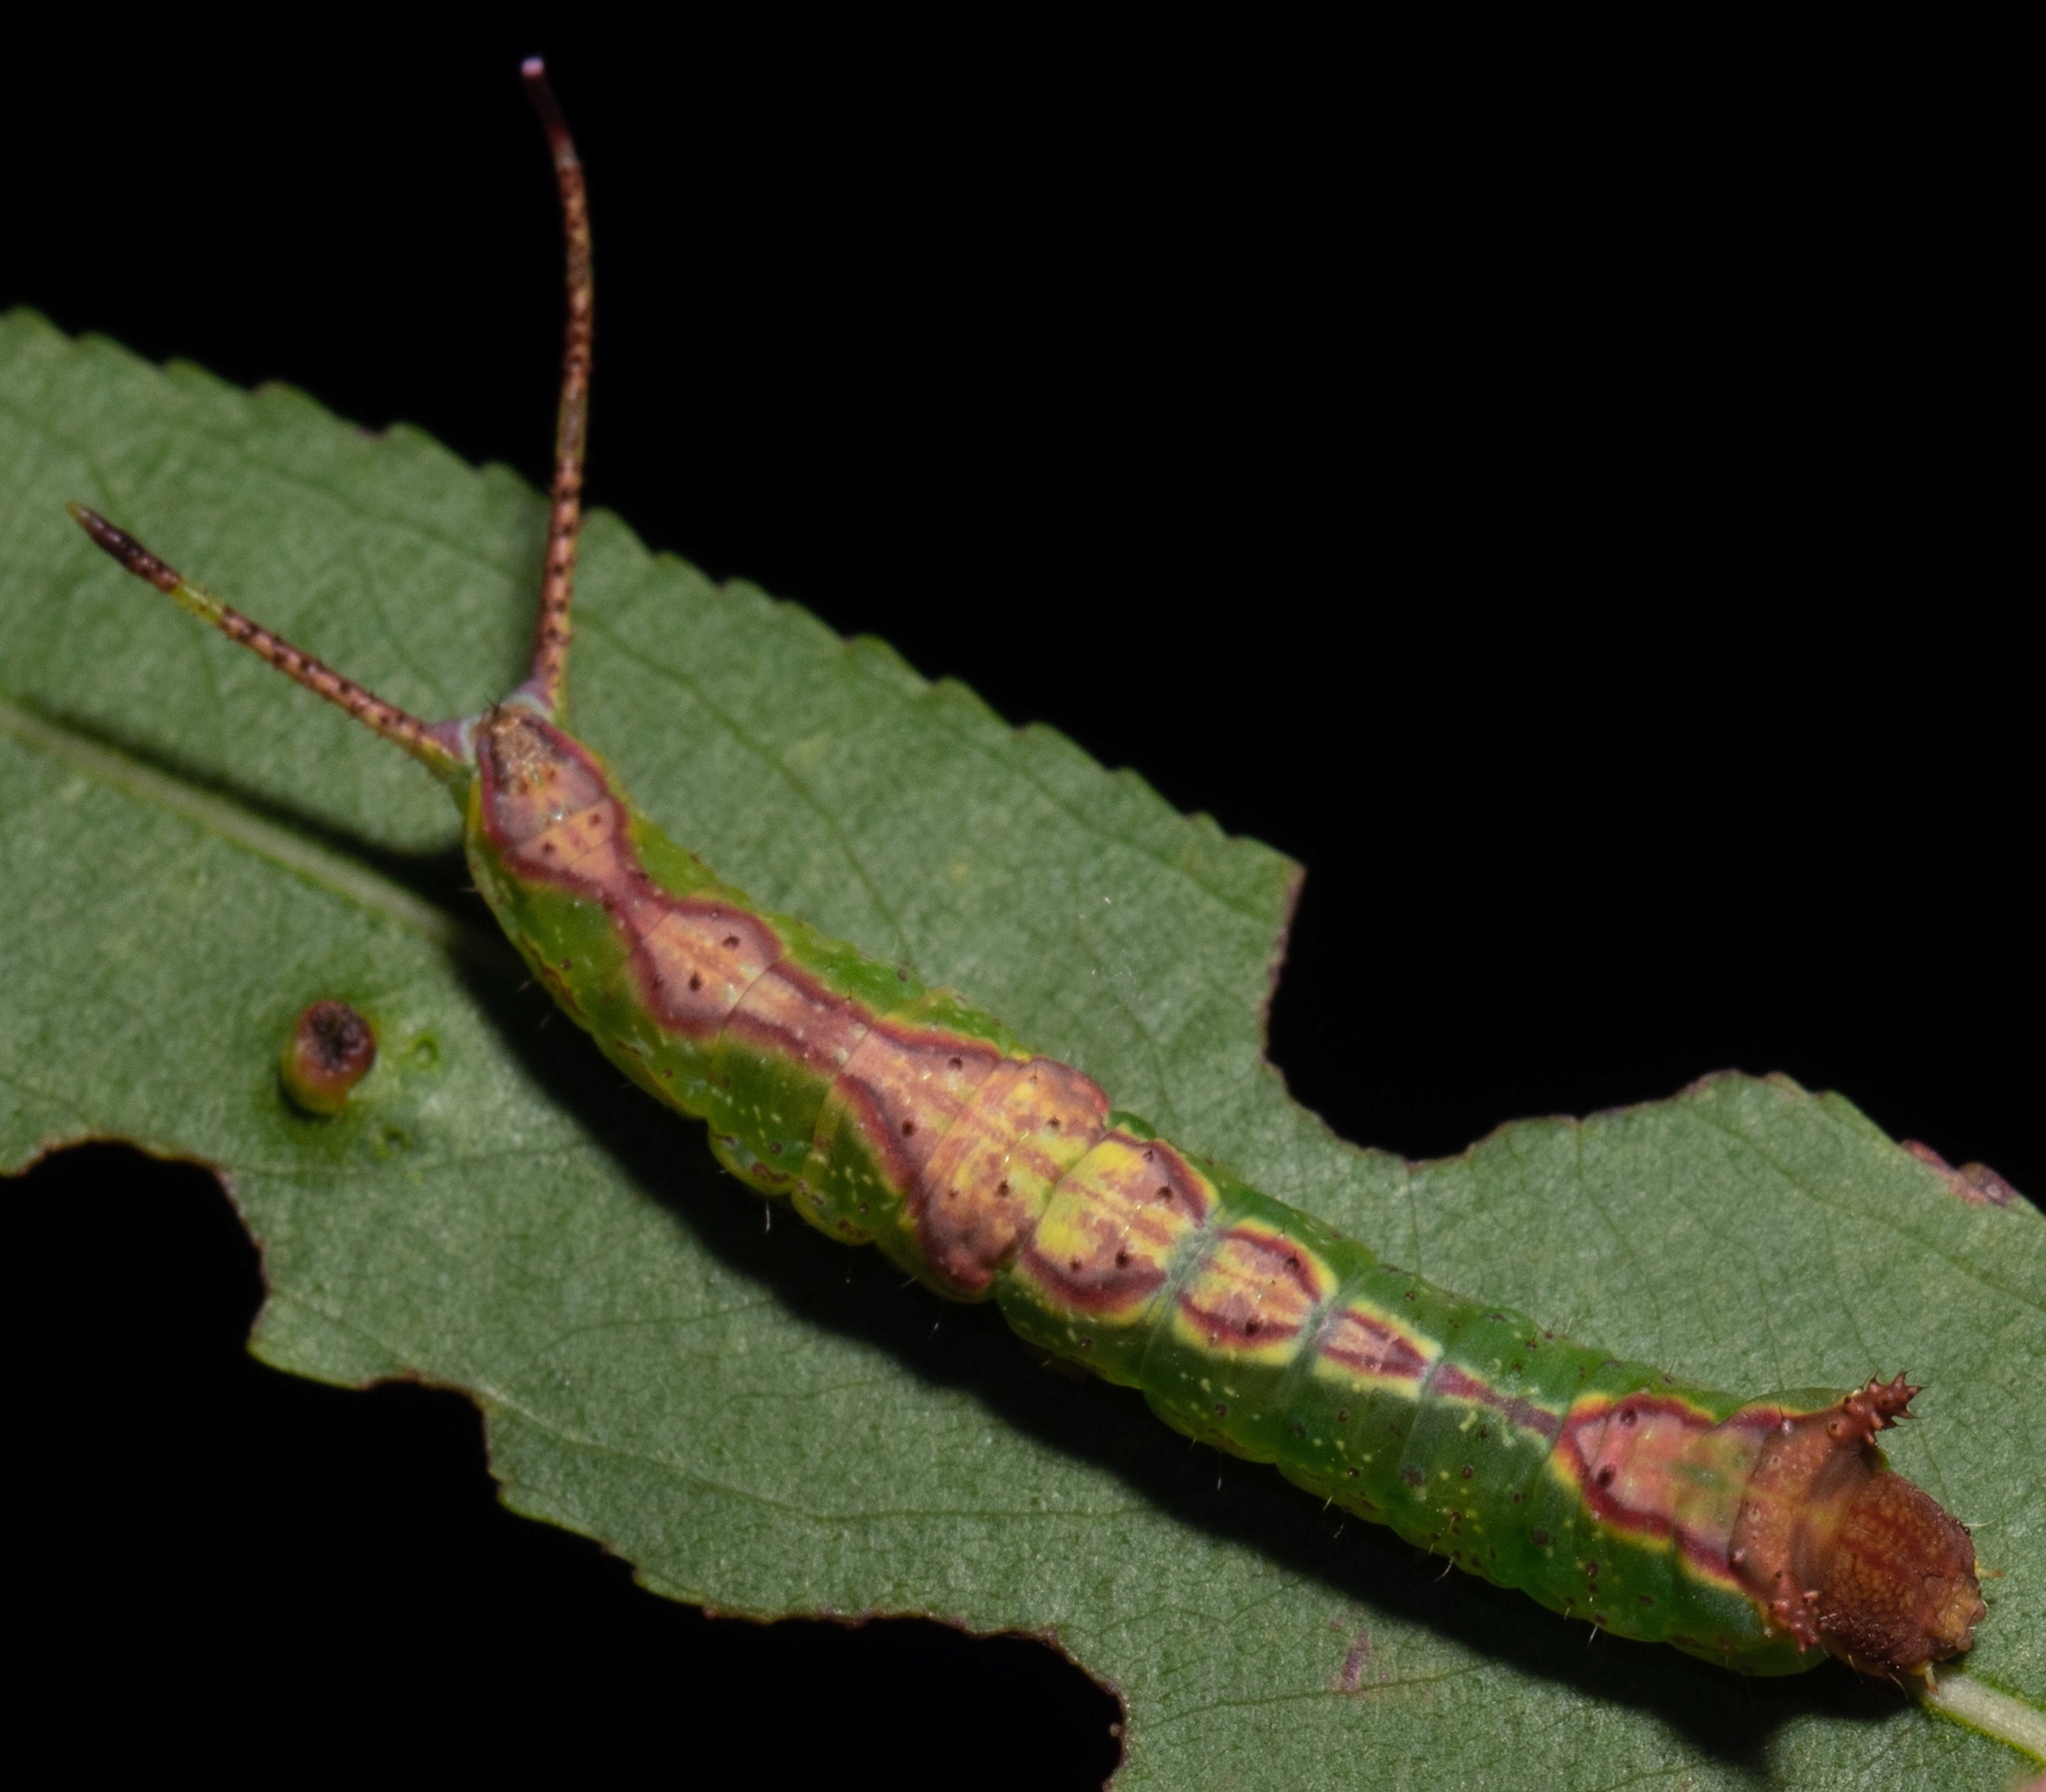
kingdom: Animalia
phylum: Arthropoda
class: Insecta
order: Lepidoptera
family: Notodontidae
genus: Furcula
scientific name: Furcula cinerea
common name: Gray furcula
